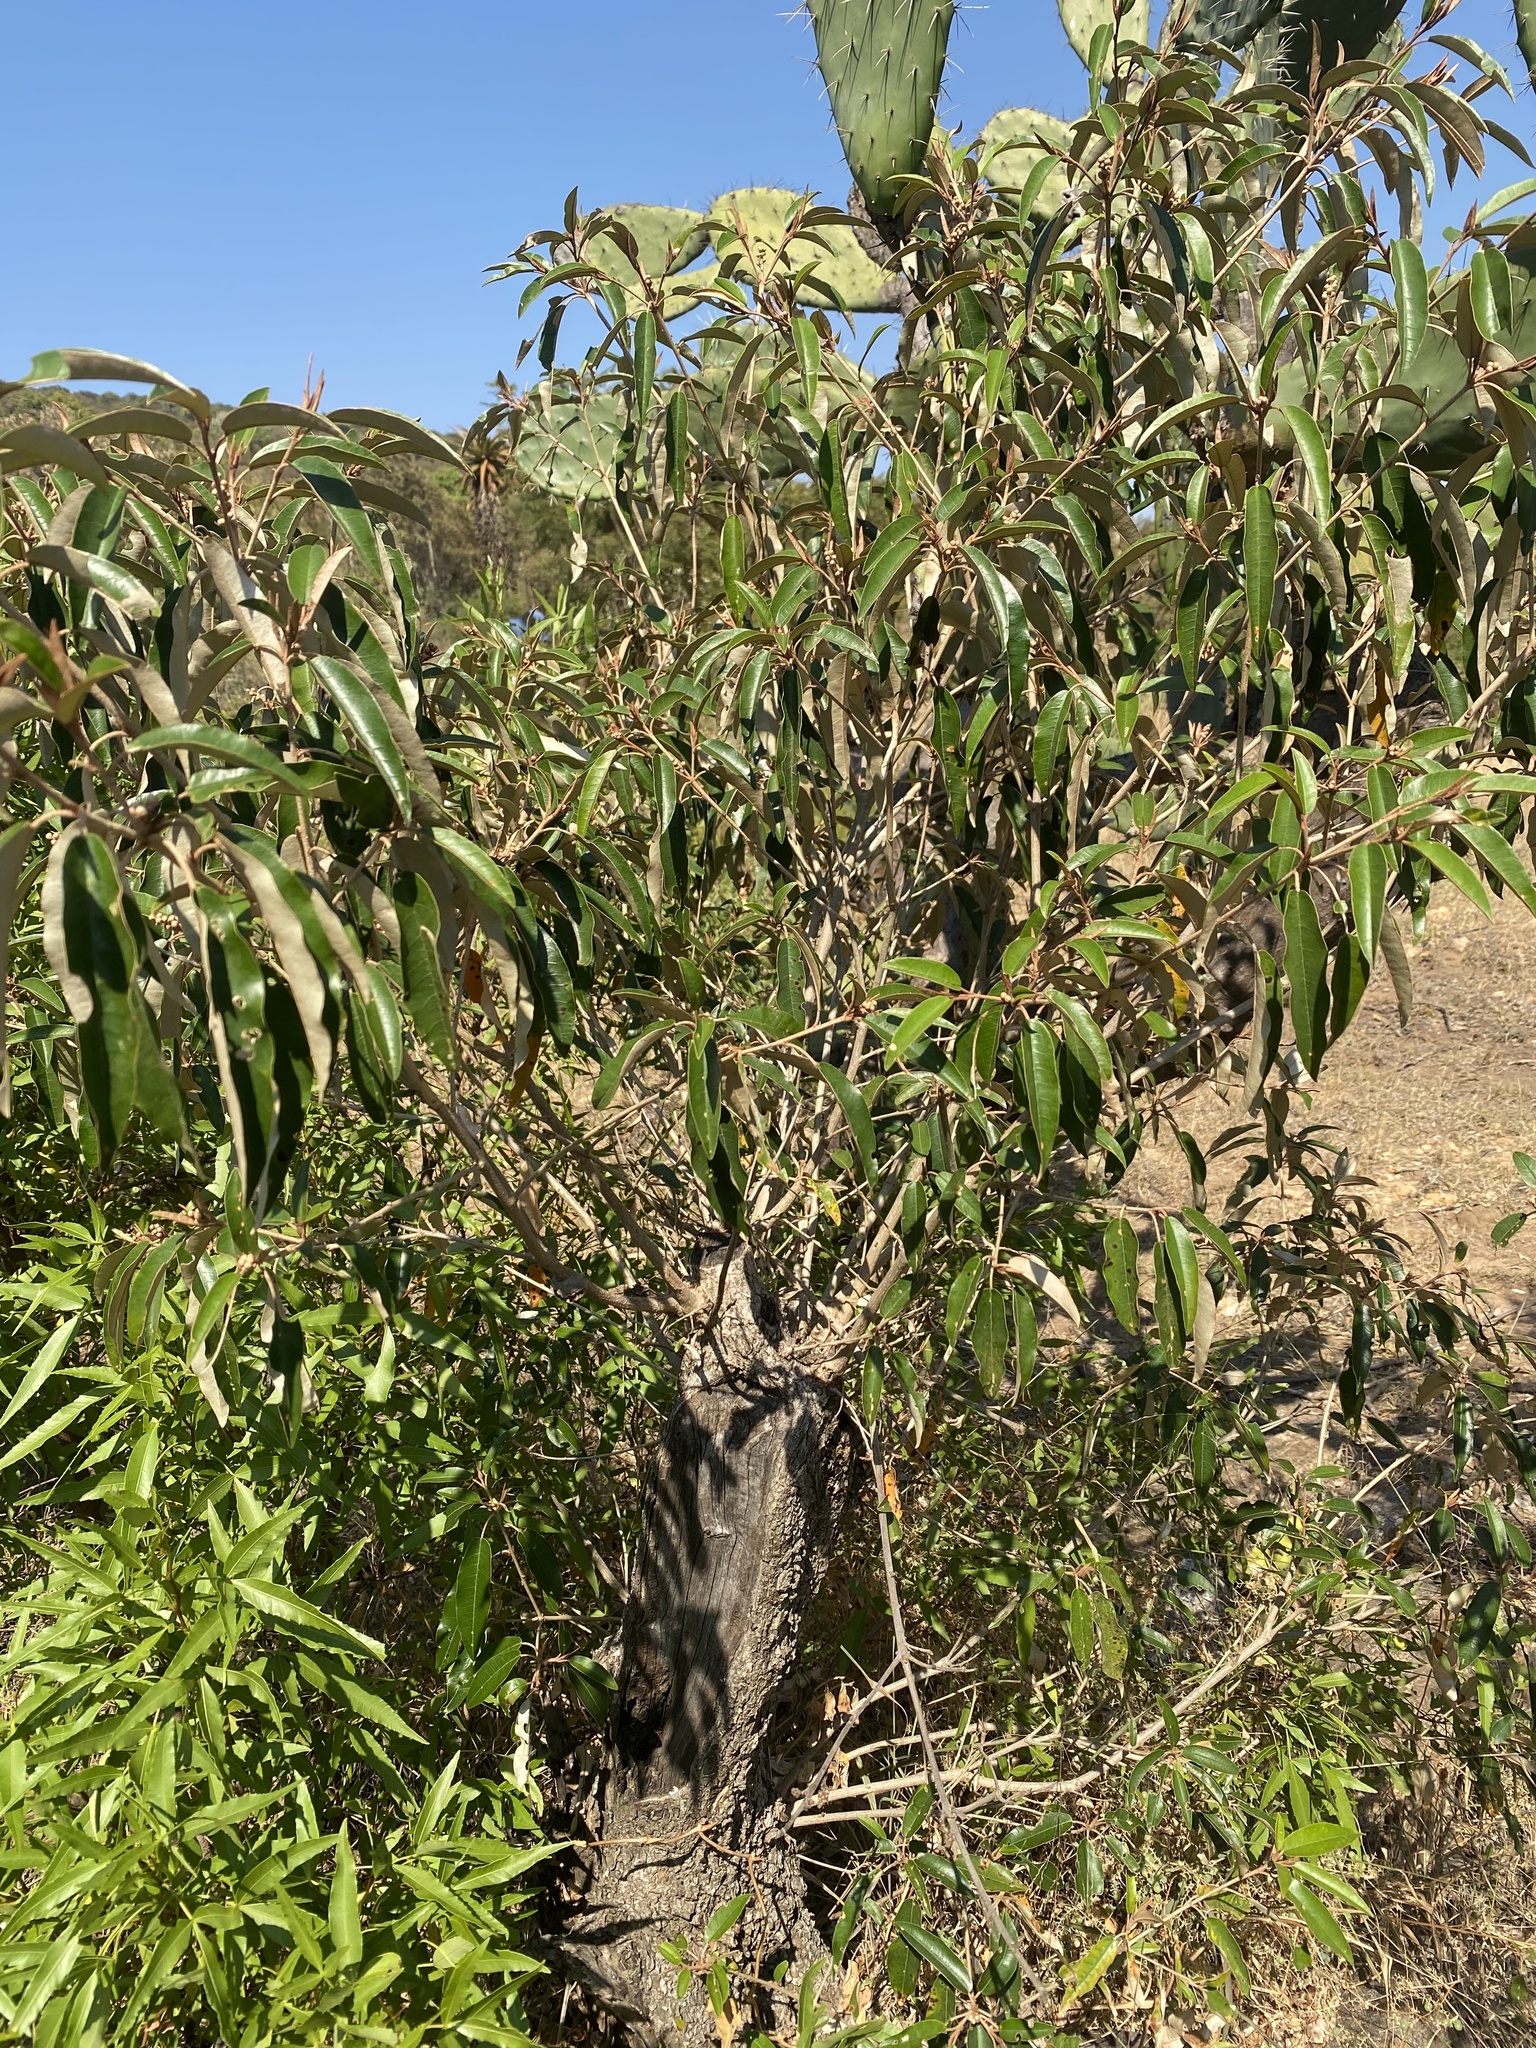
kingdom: Plantae
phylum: Tracheophyta
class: Magnoliopsida
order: Malpighiales
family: Euphorbiaceae
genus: Croton
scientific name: Croton gratissimus
